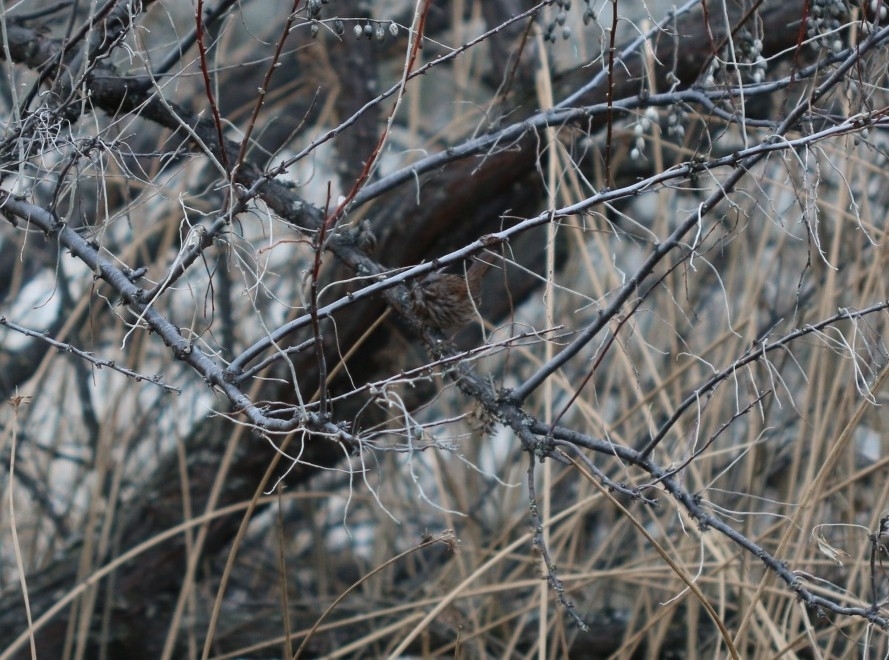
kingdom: Animalia
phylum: Chordata
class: Aves
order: Passeriformes
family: Passerellidae
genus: Melospiza
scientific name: Melospiza melodia
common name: Song sparrow
